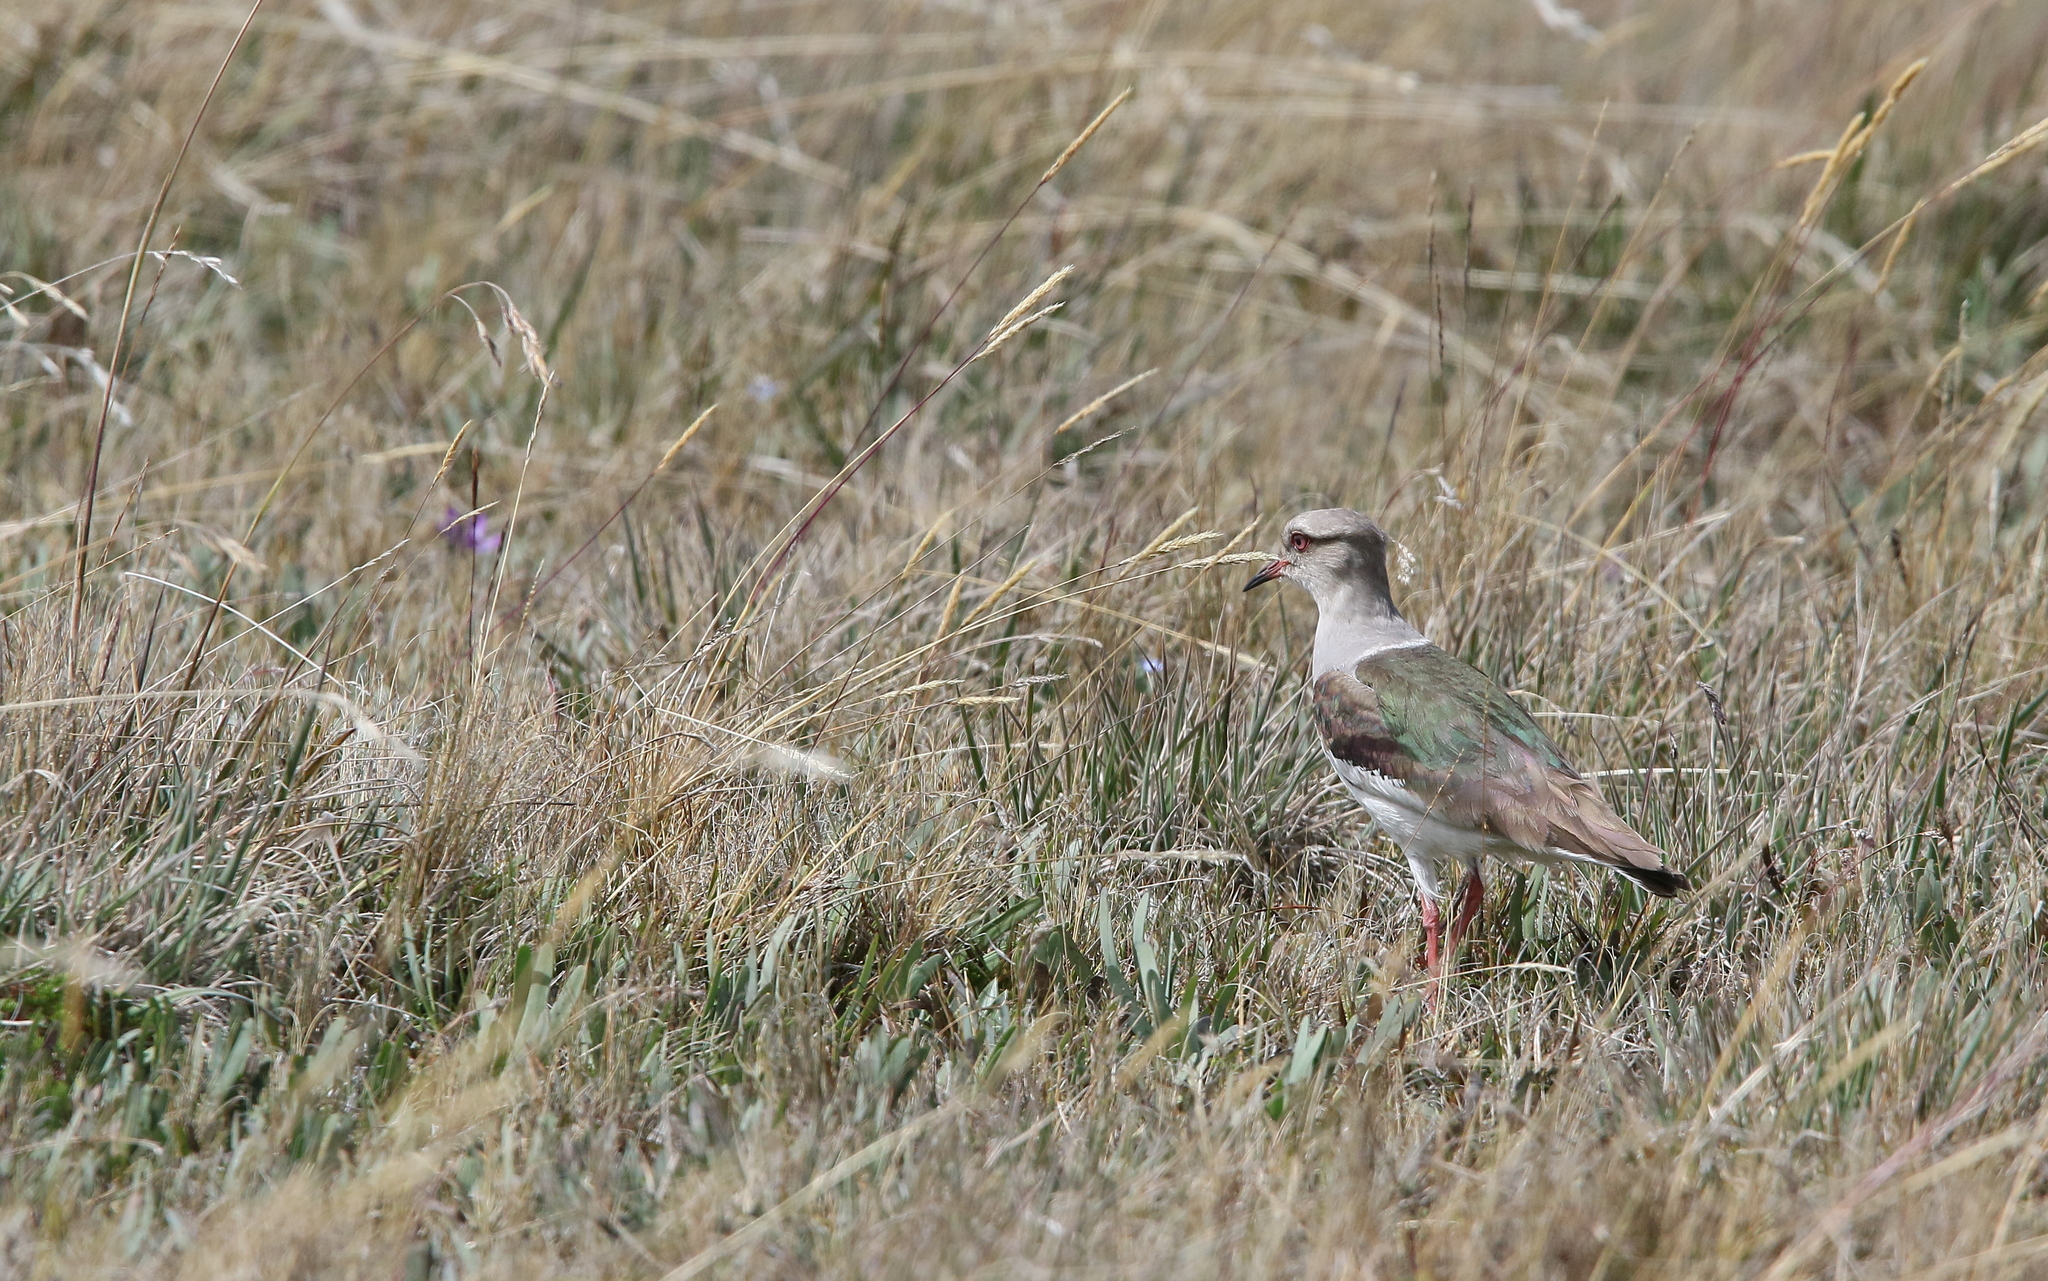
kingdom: Animalia
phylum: Chordata
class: Aves
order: Charadriiformes
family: Charadriidae
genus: Vanellus
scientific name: Vanellus resplendens
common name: Andean lapwing
